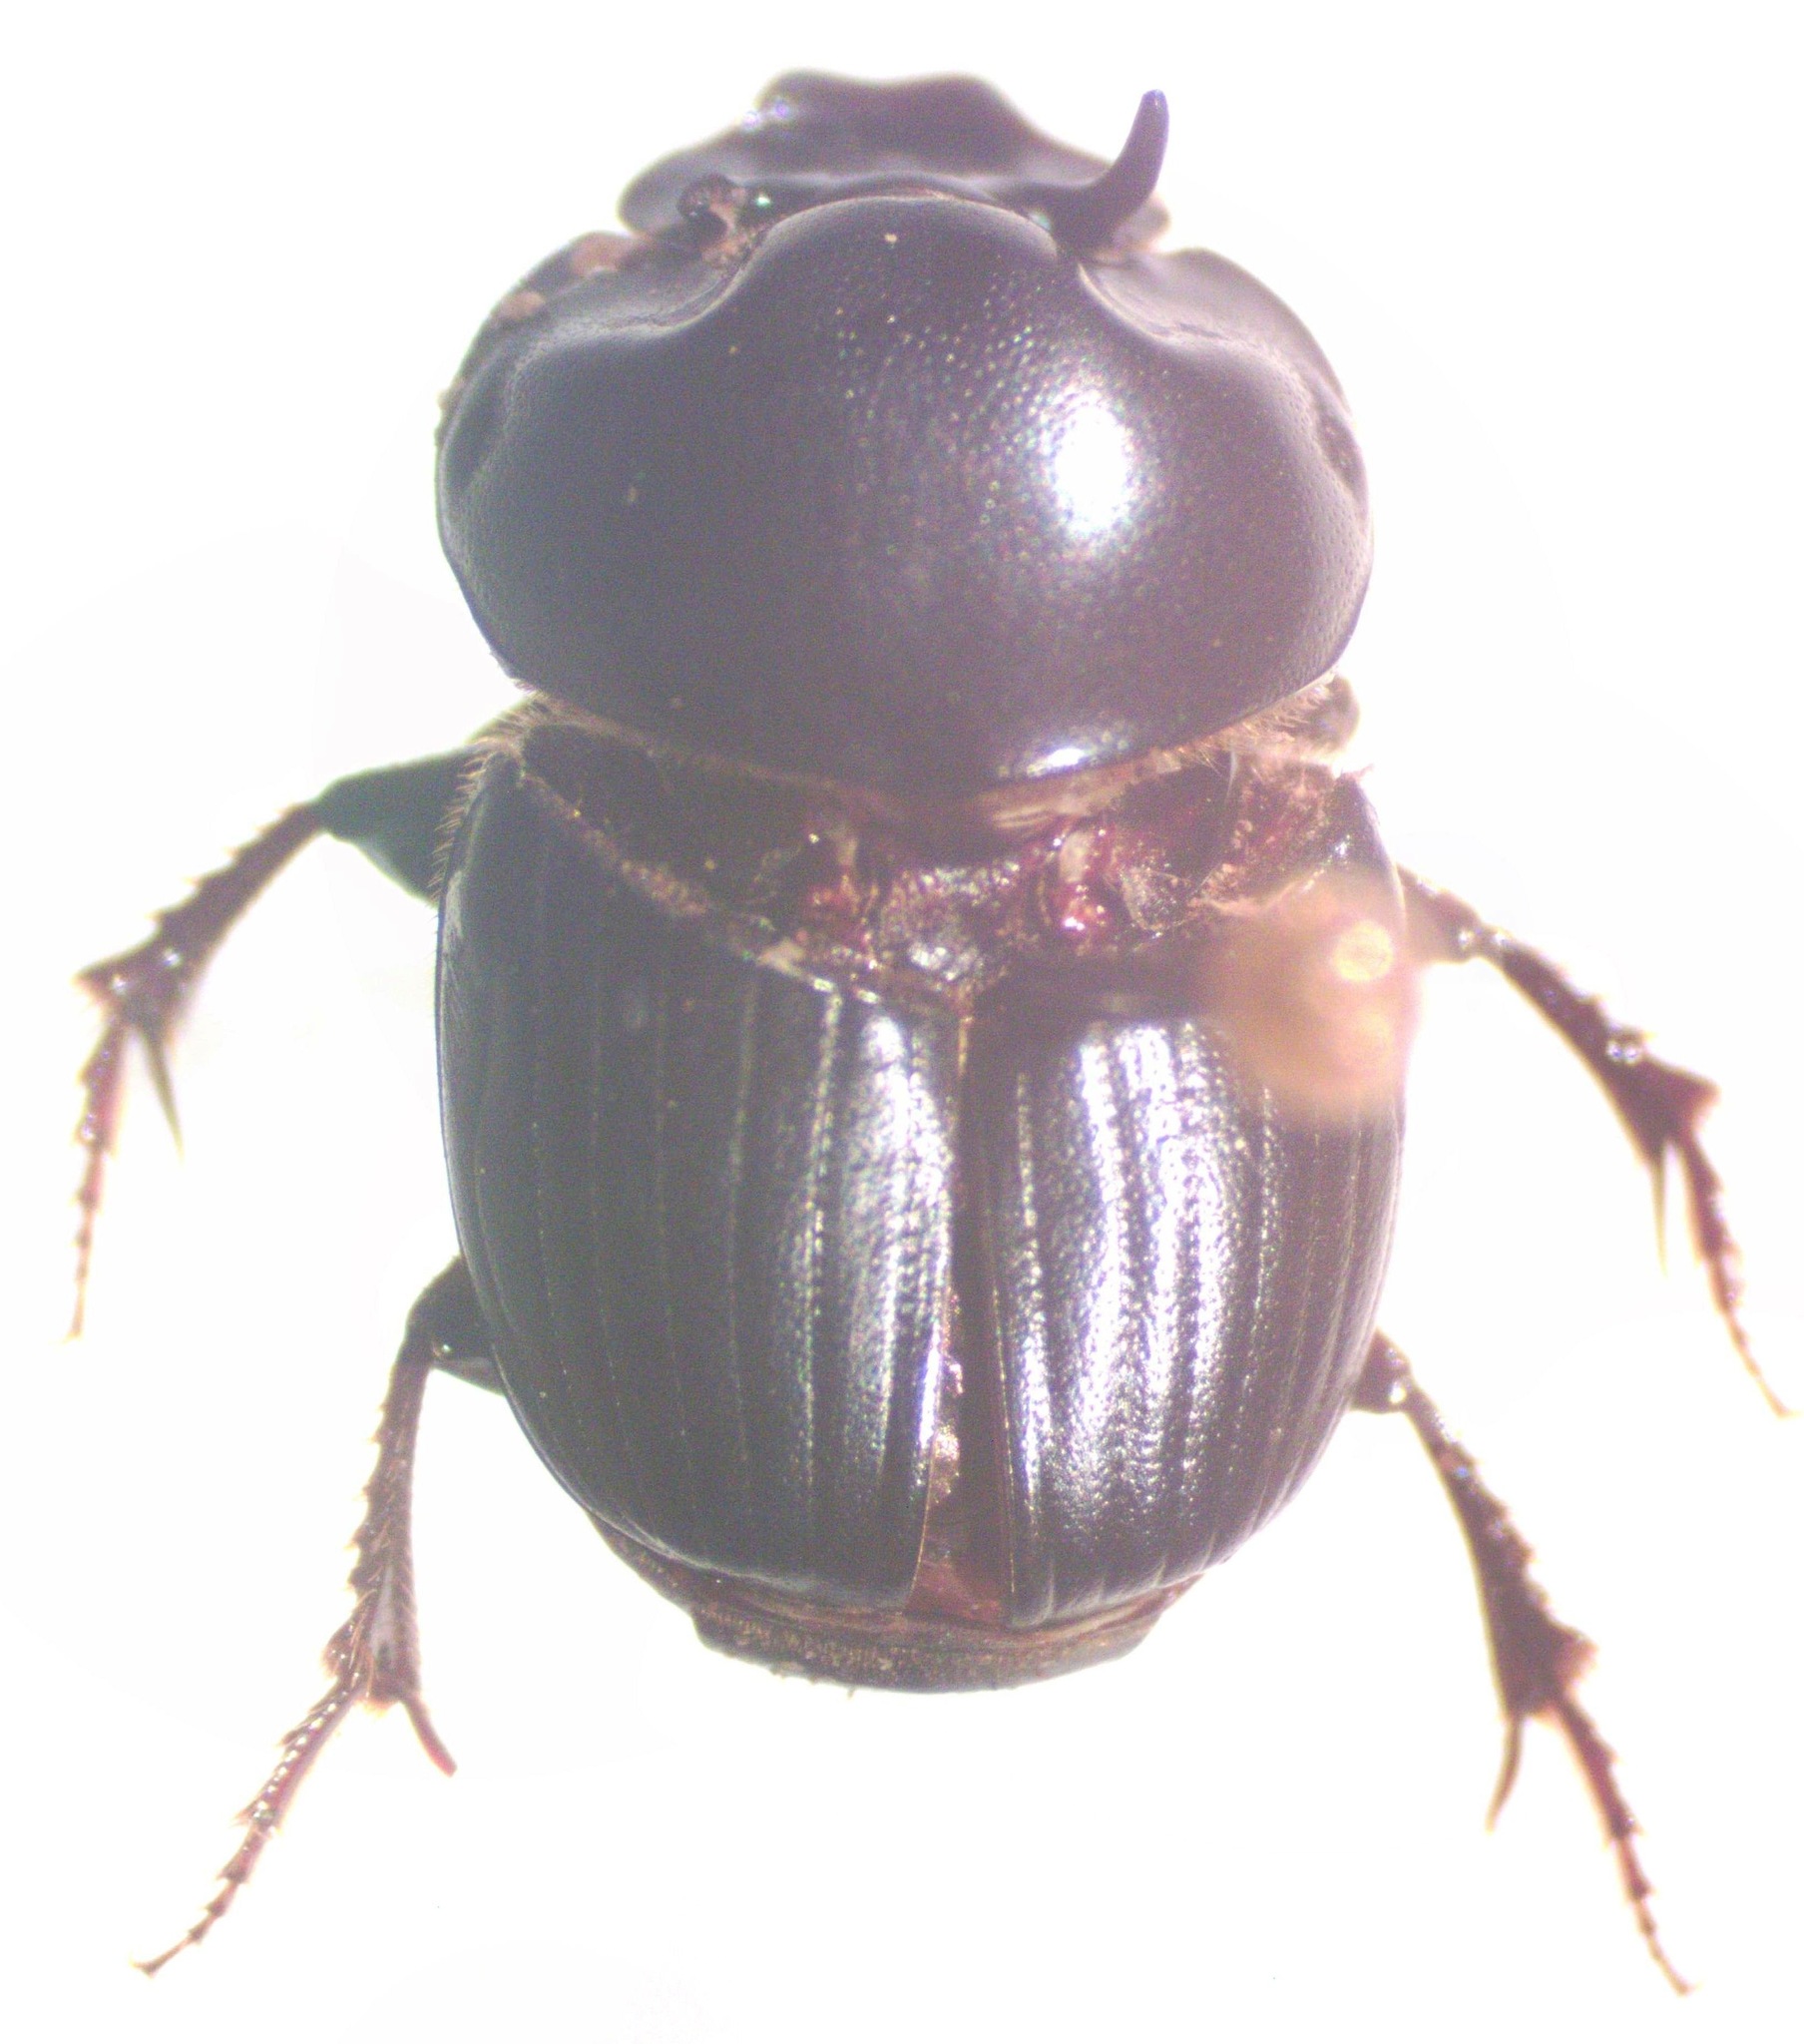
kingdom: Animalia
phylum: Arthropoda
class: Insecta
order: Coleoptera
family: Scarabaeidae
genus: Onthophagus
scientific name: Onthophagus batesi
